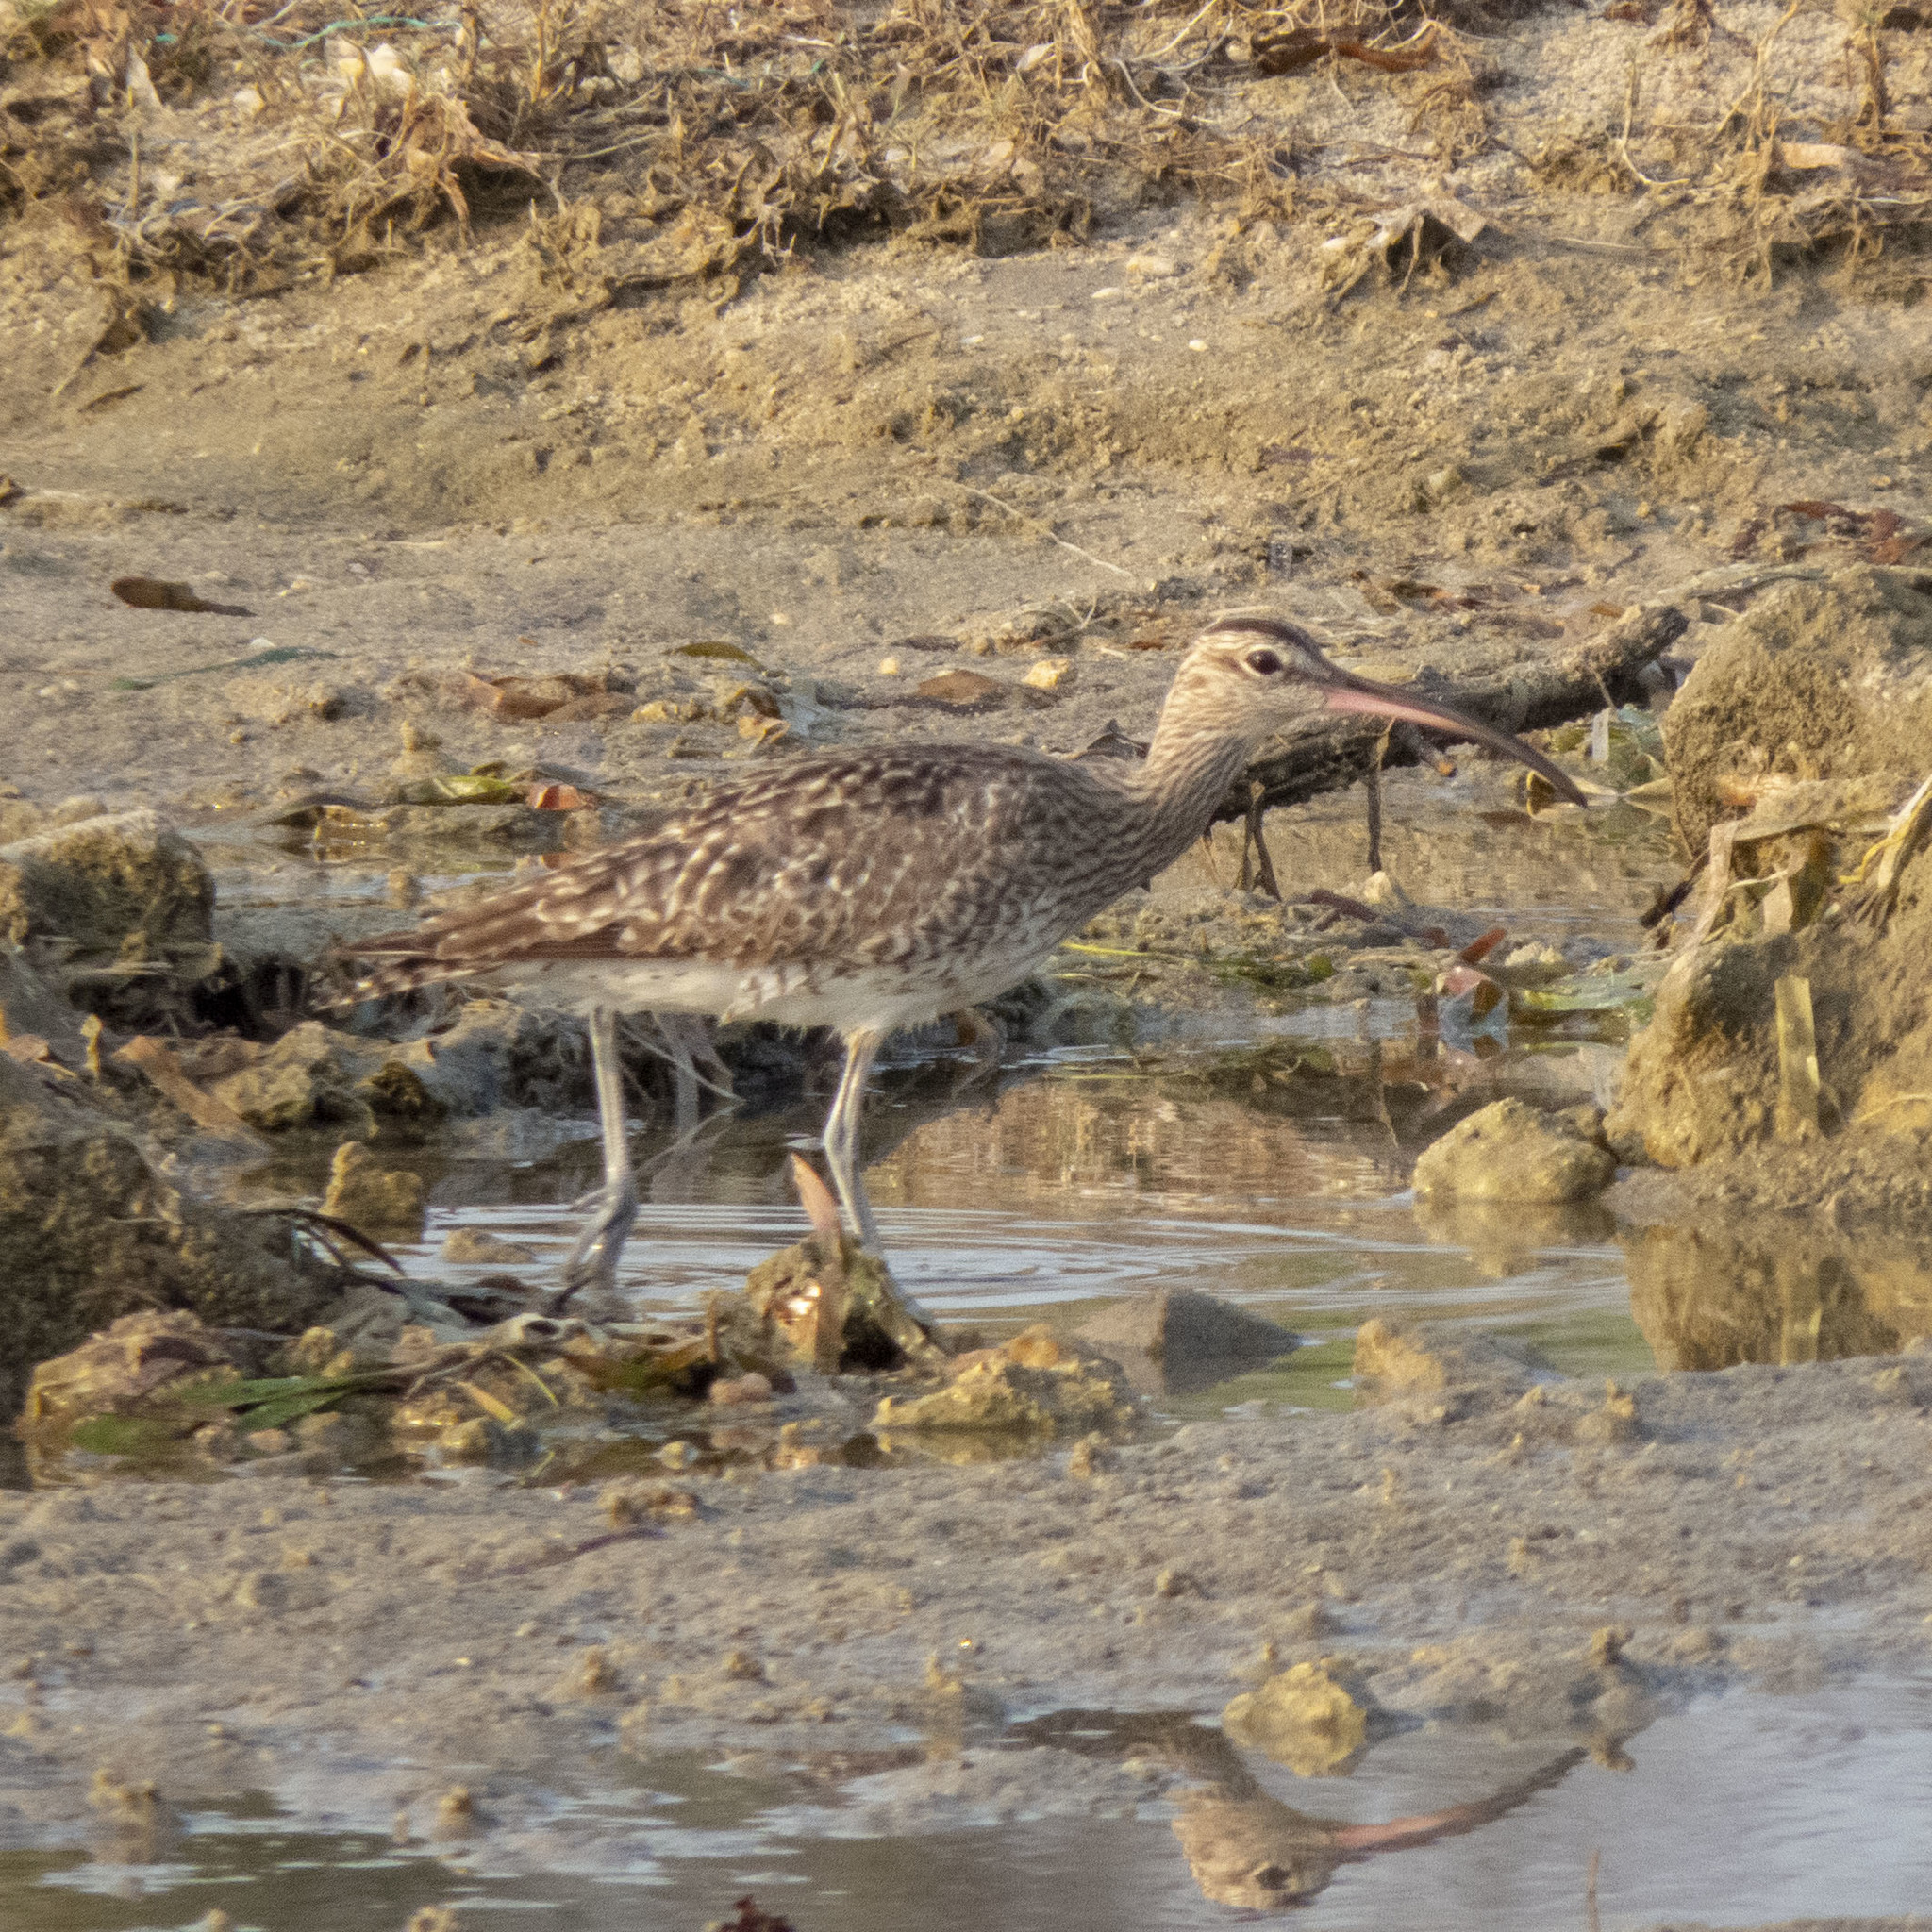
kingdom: Animalia
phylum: Chordata
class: Aves
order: Charadriiformes
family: Scolopacidae
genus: Numenius
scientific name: Numenius phaeopus
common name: Whimbrel
